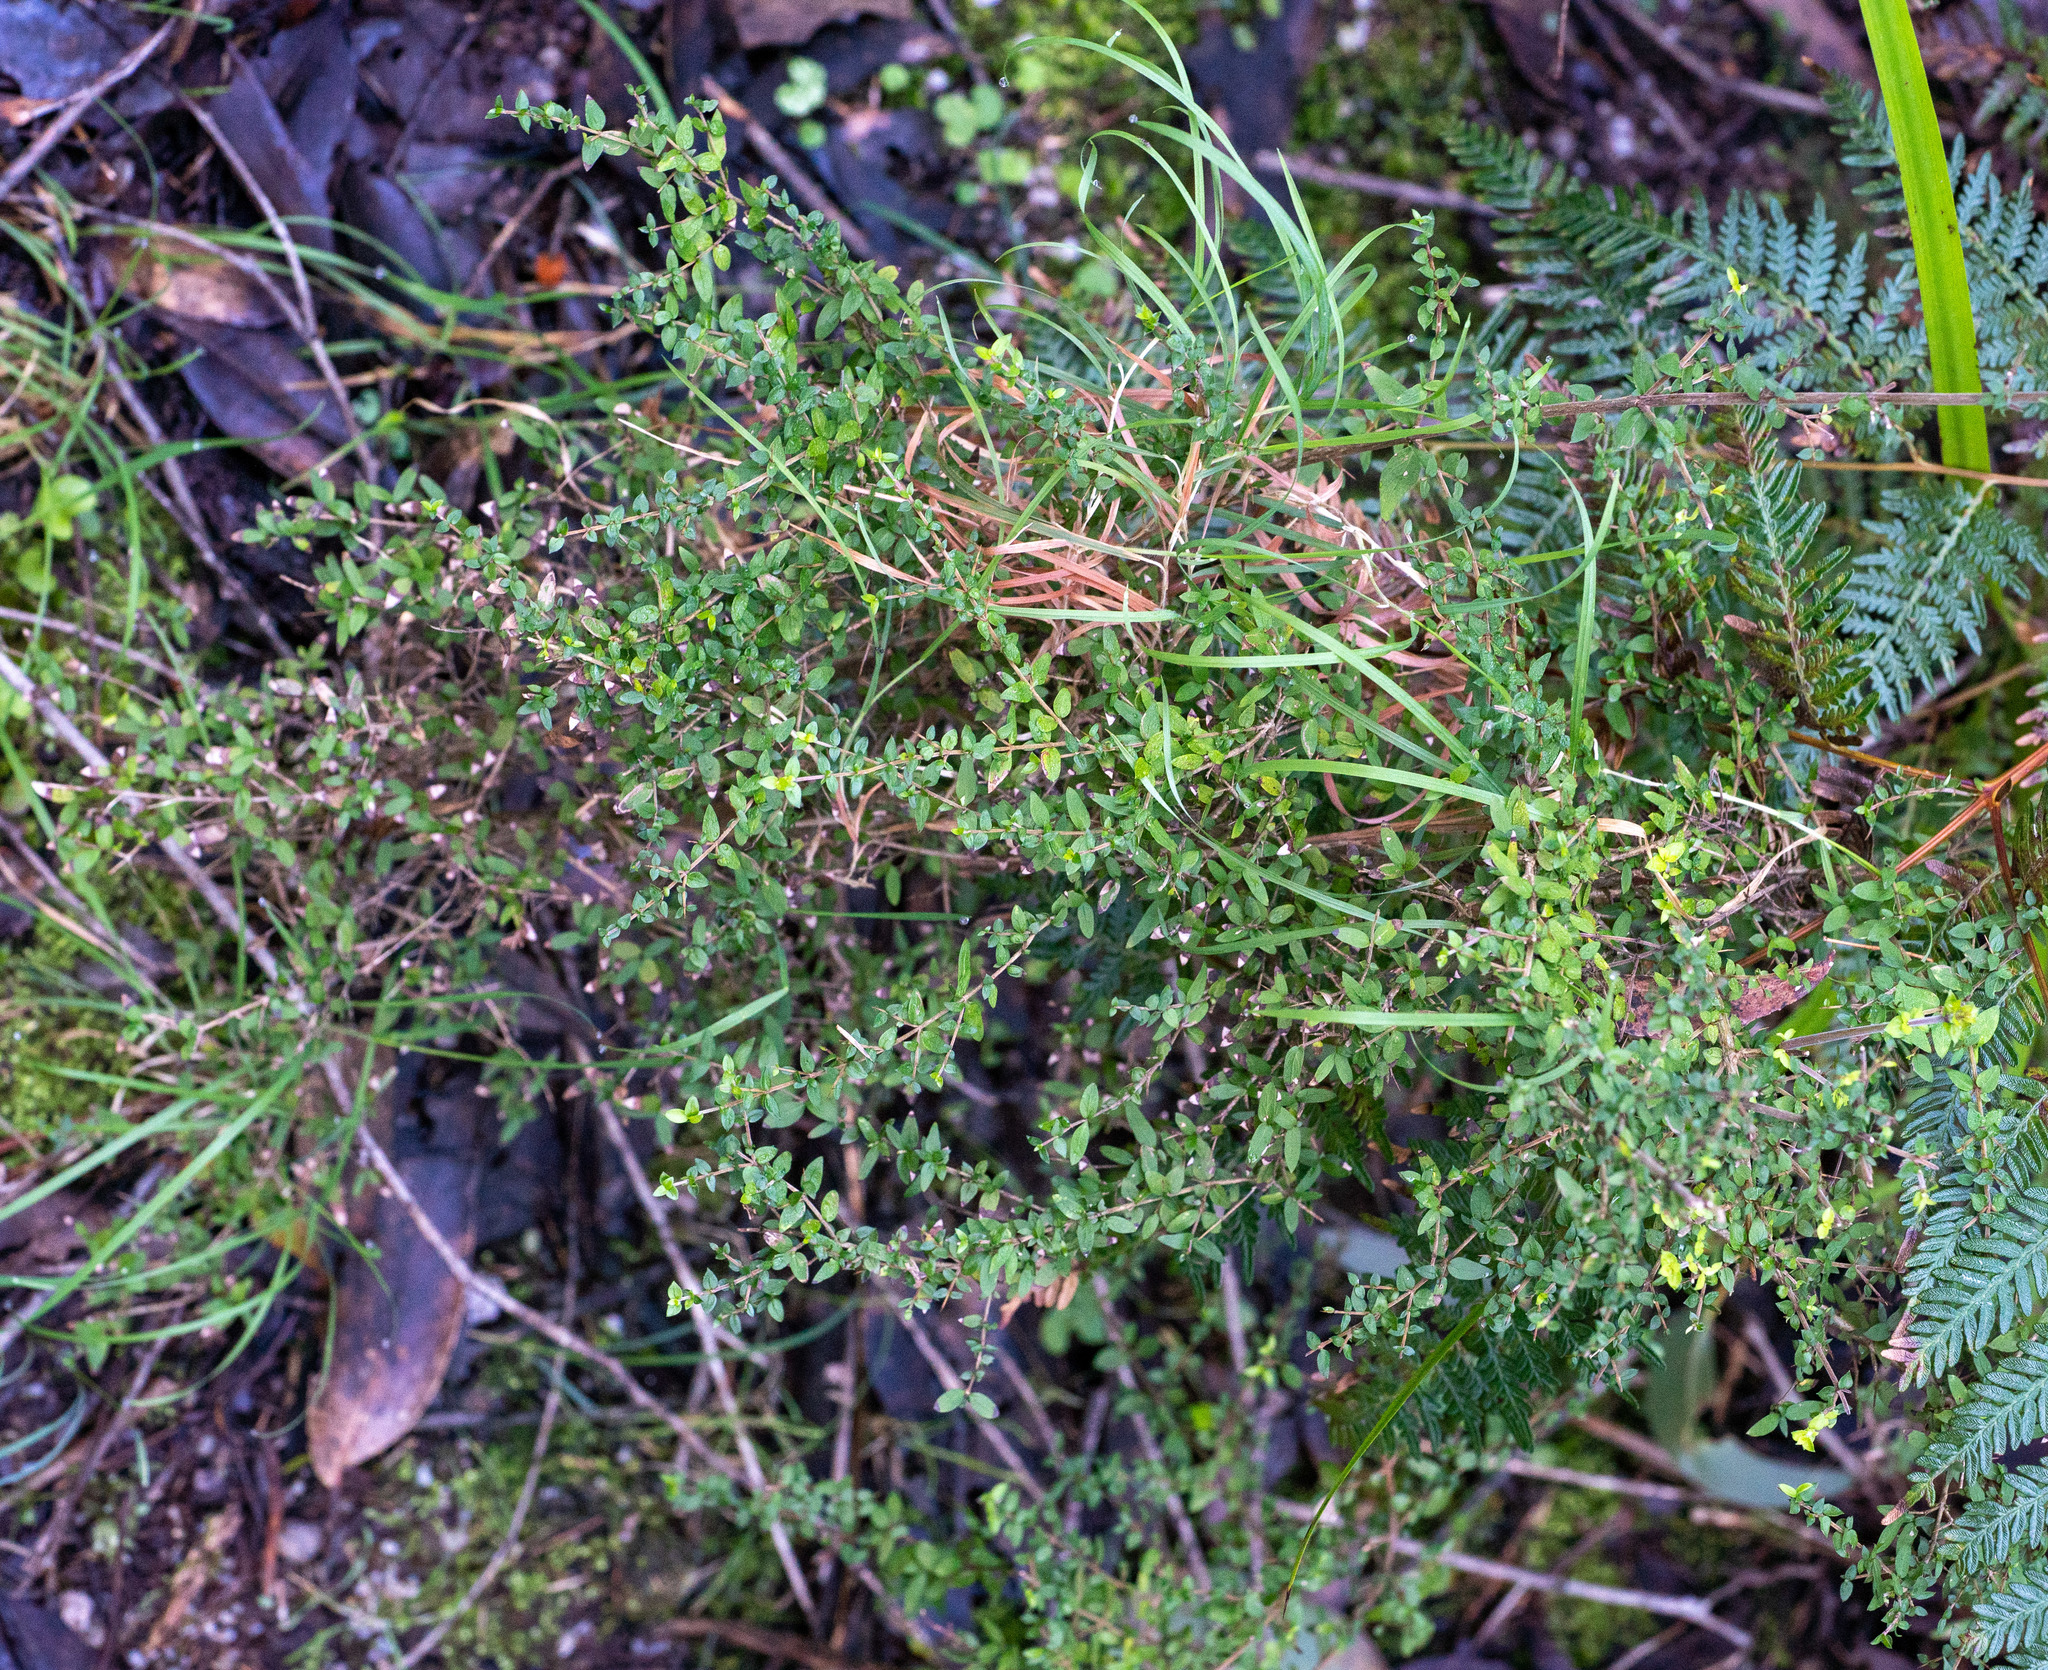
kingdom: Plantae
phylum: Tracheophyta
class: Magnoliopsida
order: Gentianales
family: Rubiaceae
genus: Coprosma
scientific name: Coprosma quadrifida
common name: Prickly currantbush
